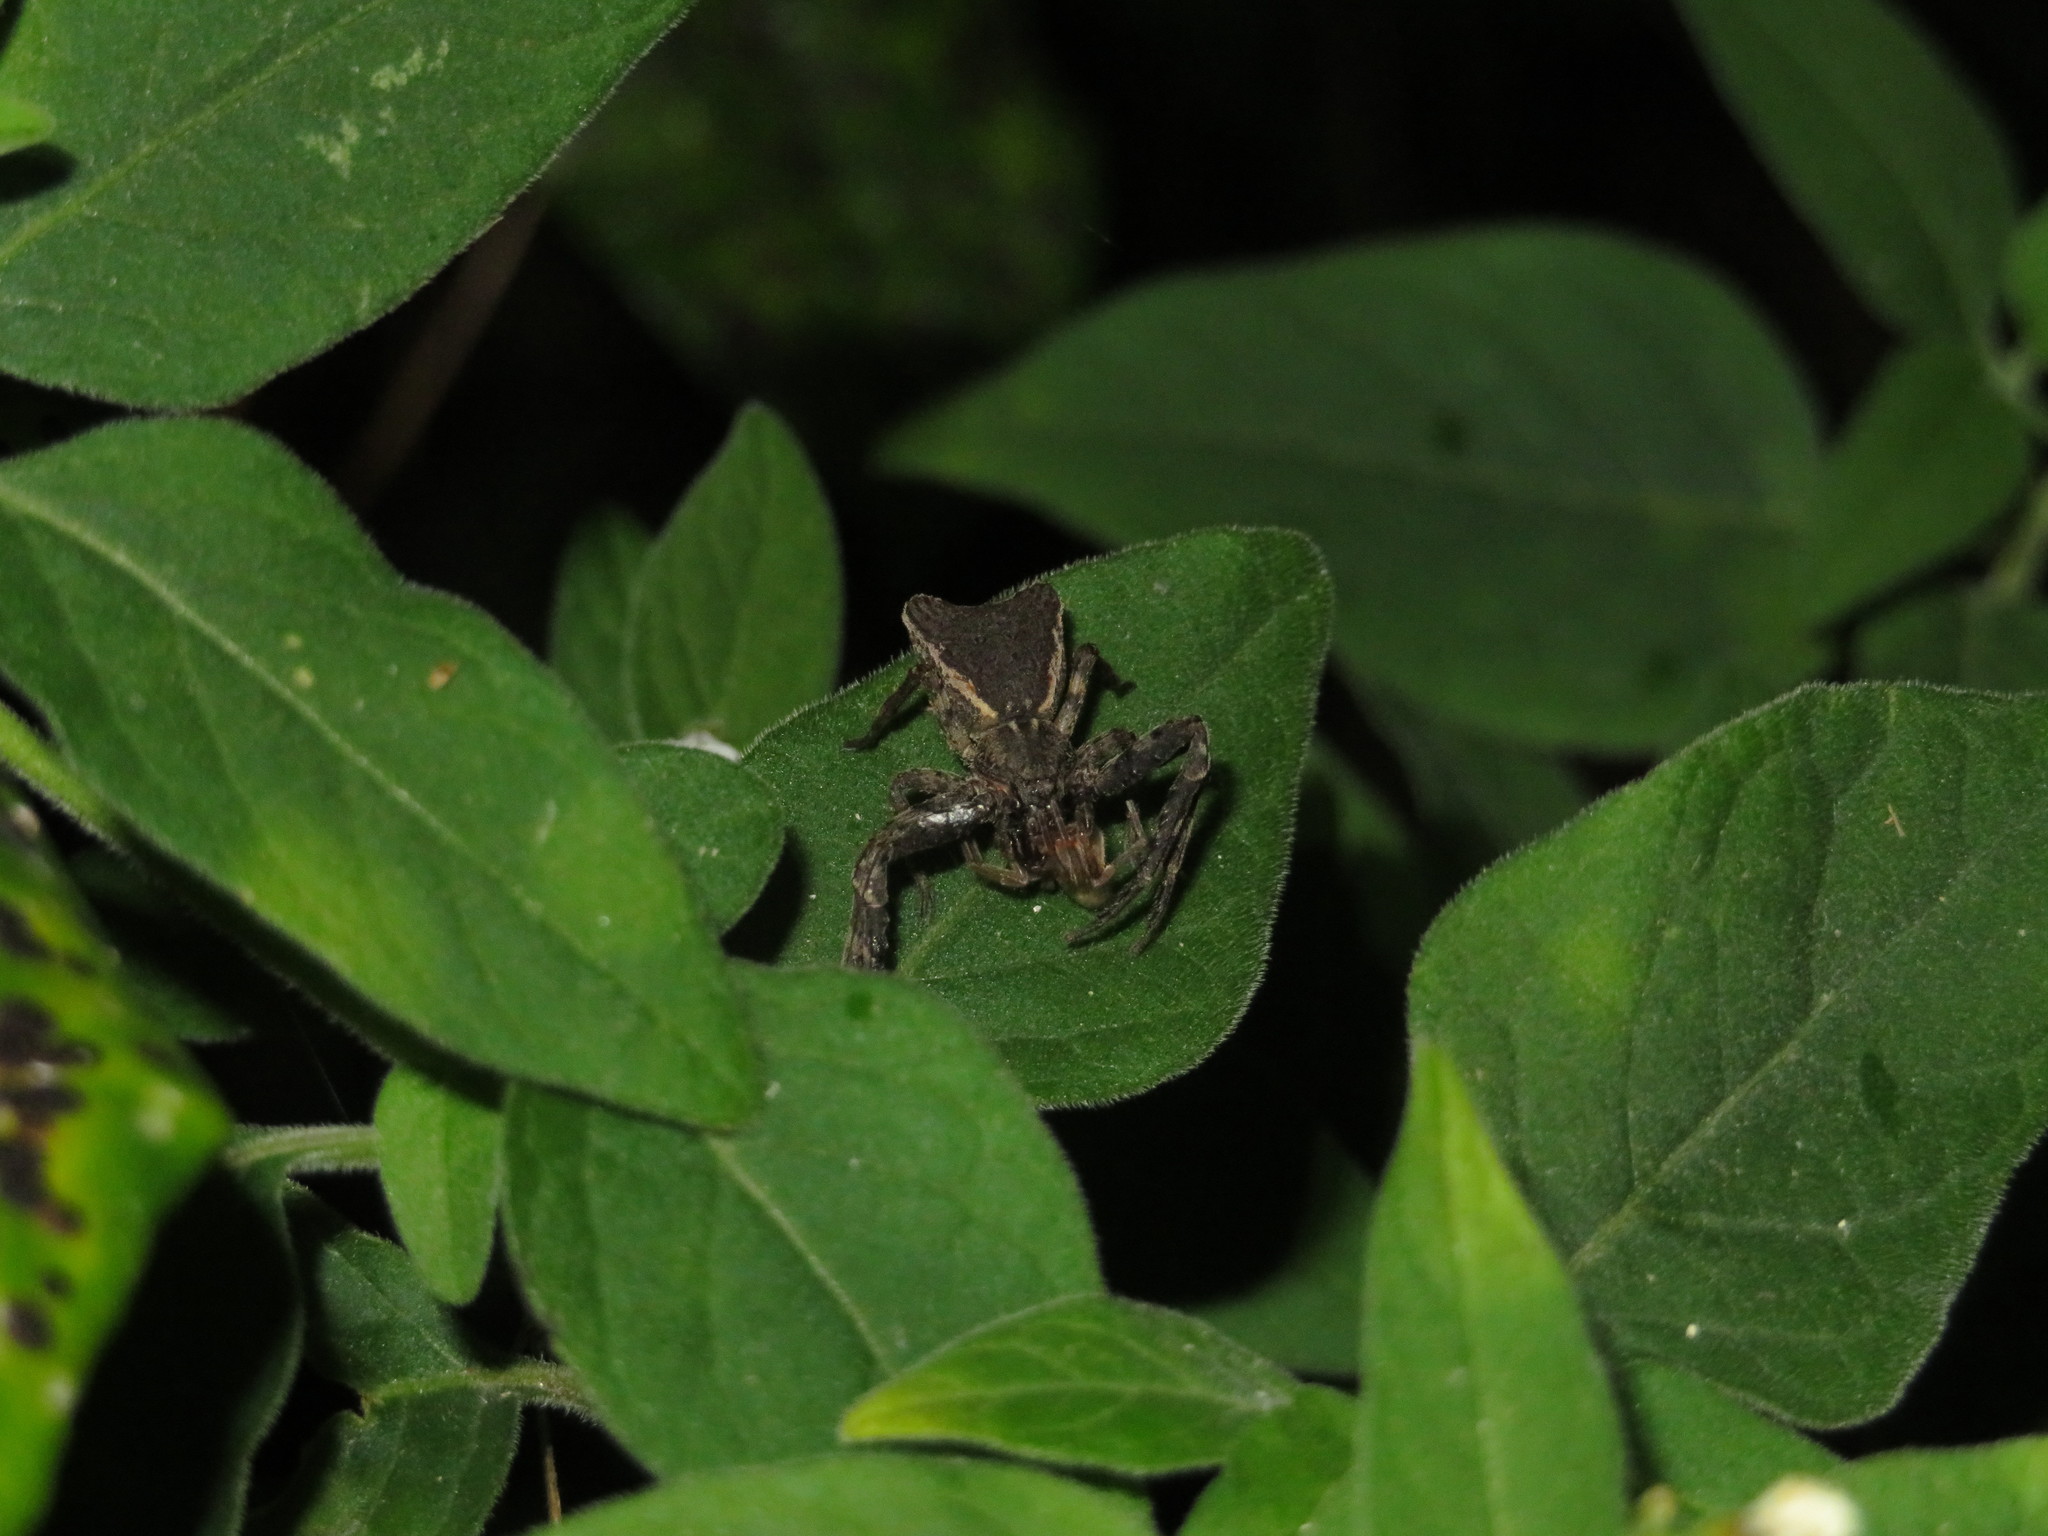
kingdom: Animalia
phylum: Arthropoda
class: Arachnida
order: Araneae
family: Thomisidae
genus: Sidymella
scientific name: Sidymella angularis
